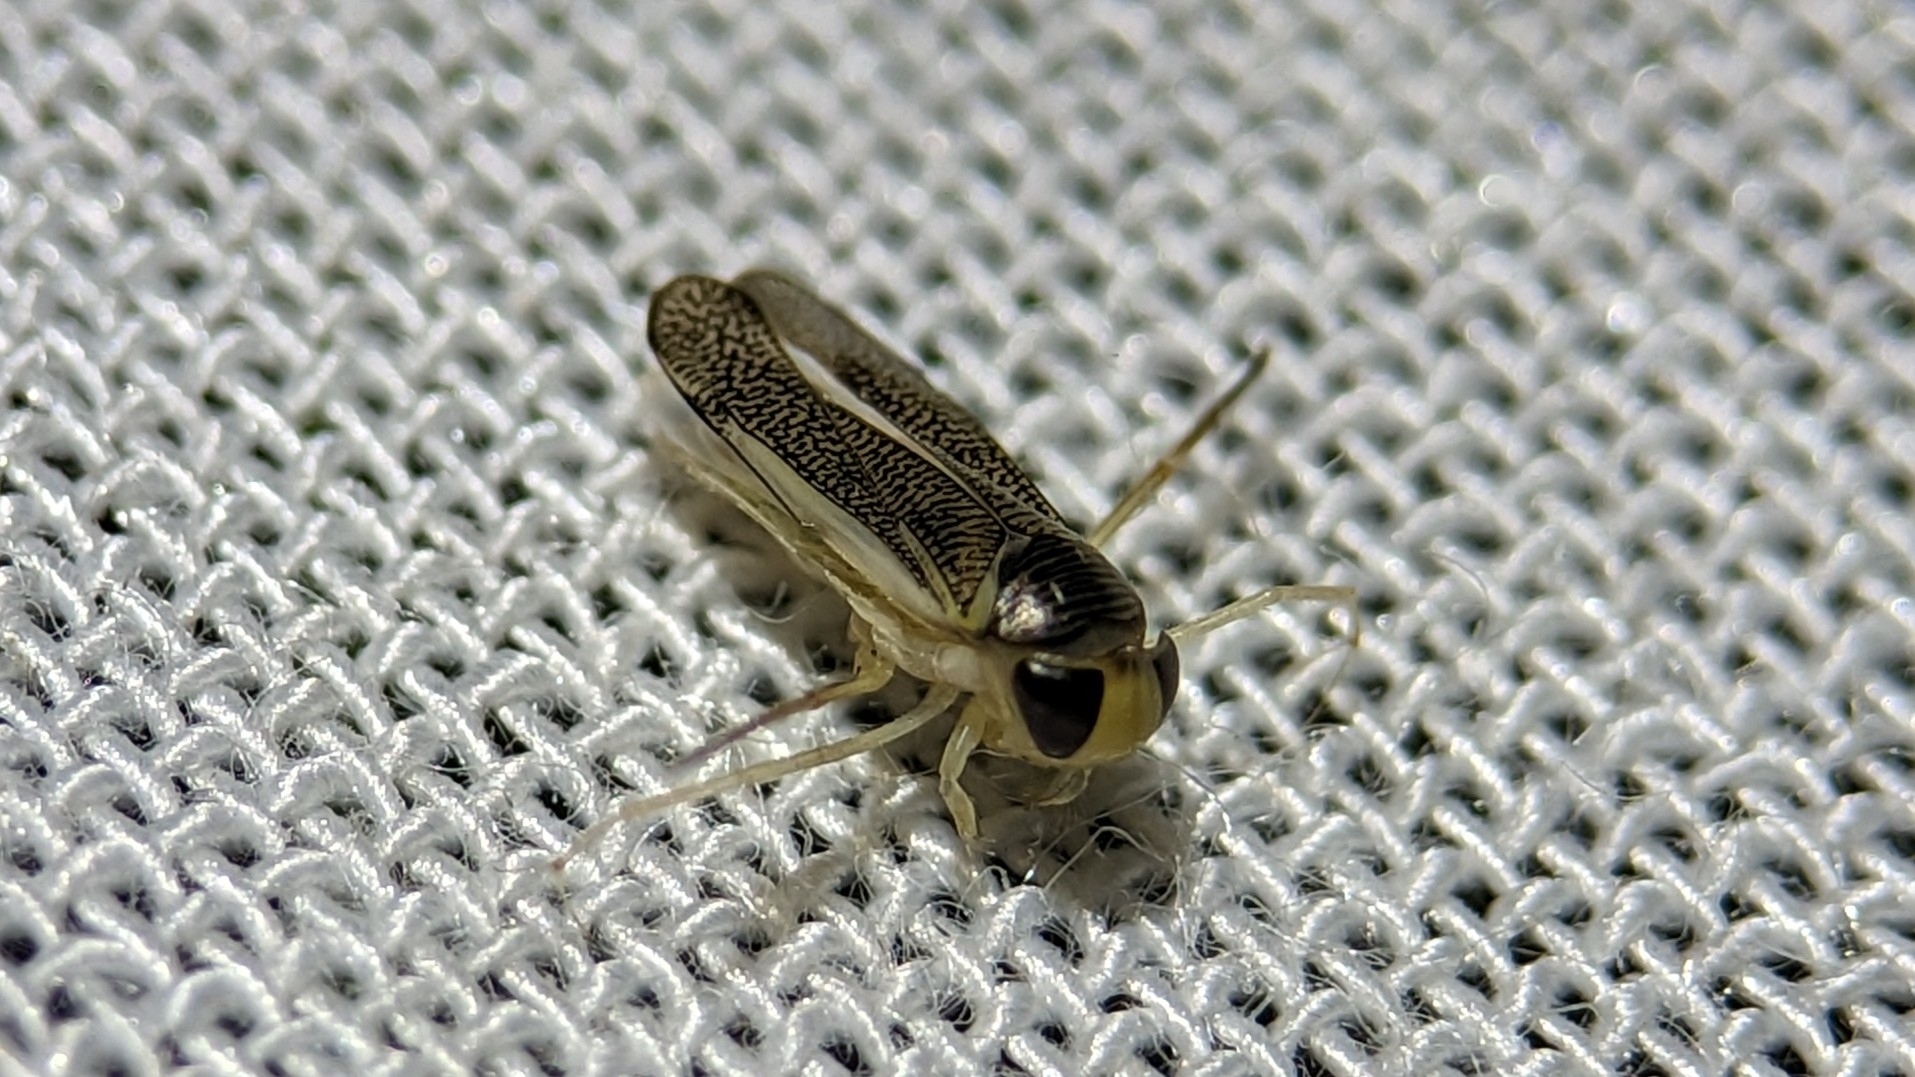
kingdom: Animalia
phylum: Arthropoda
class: Insecta
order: Hemiptera
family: Corixidae
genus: Trichocorixa
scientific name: Trichocorixa
